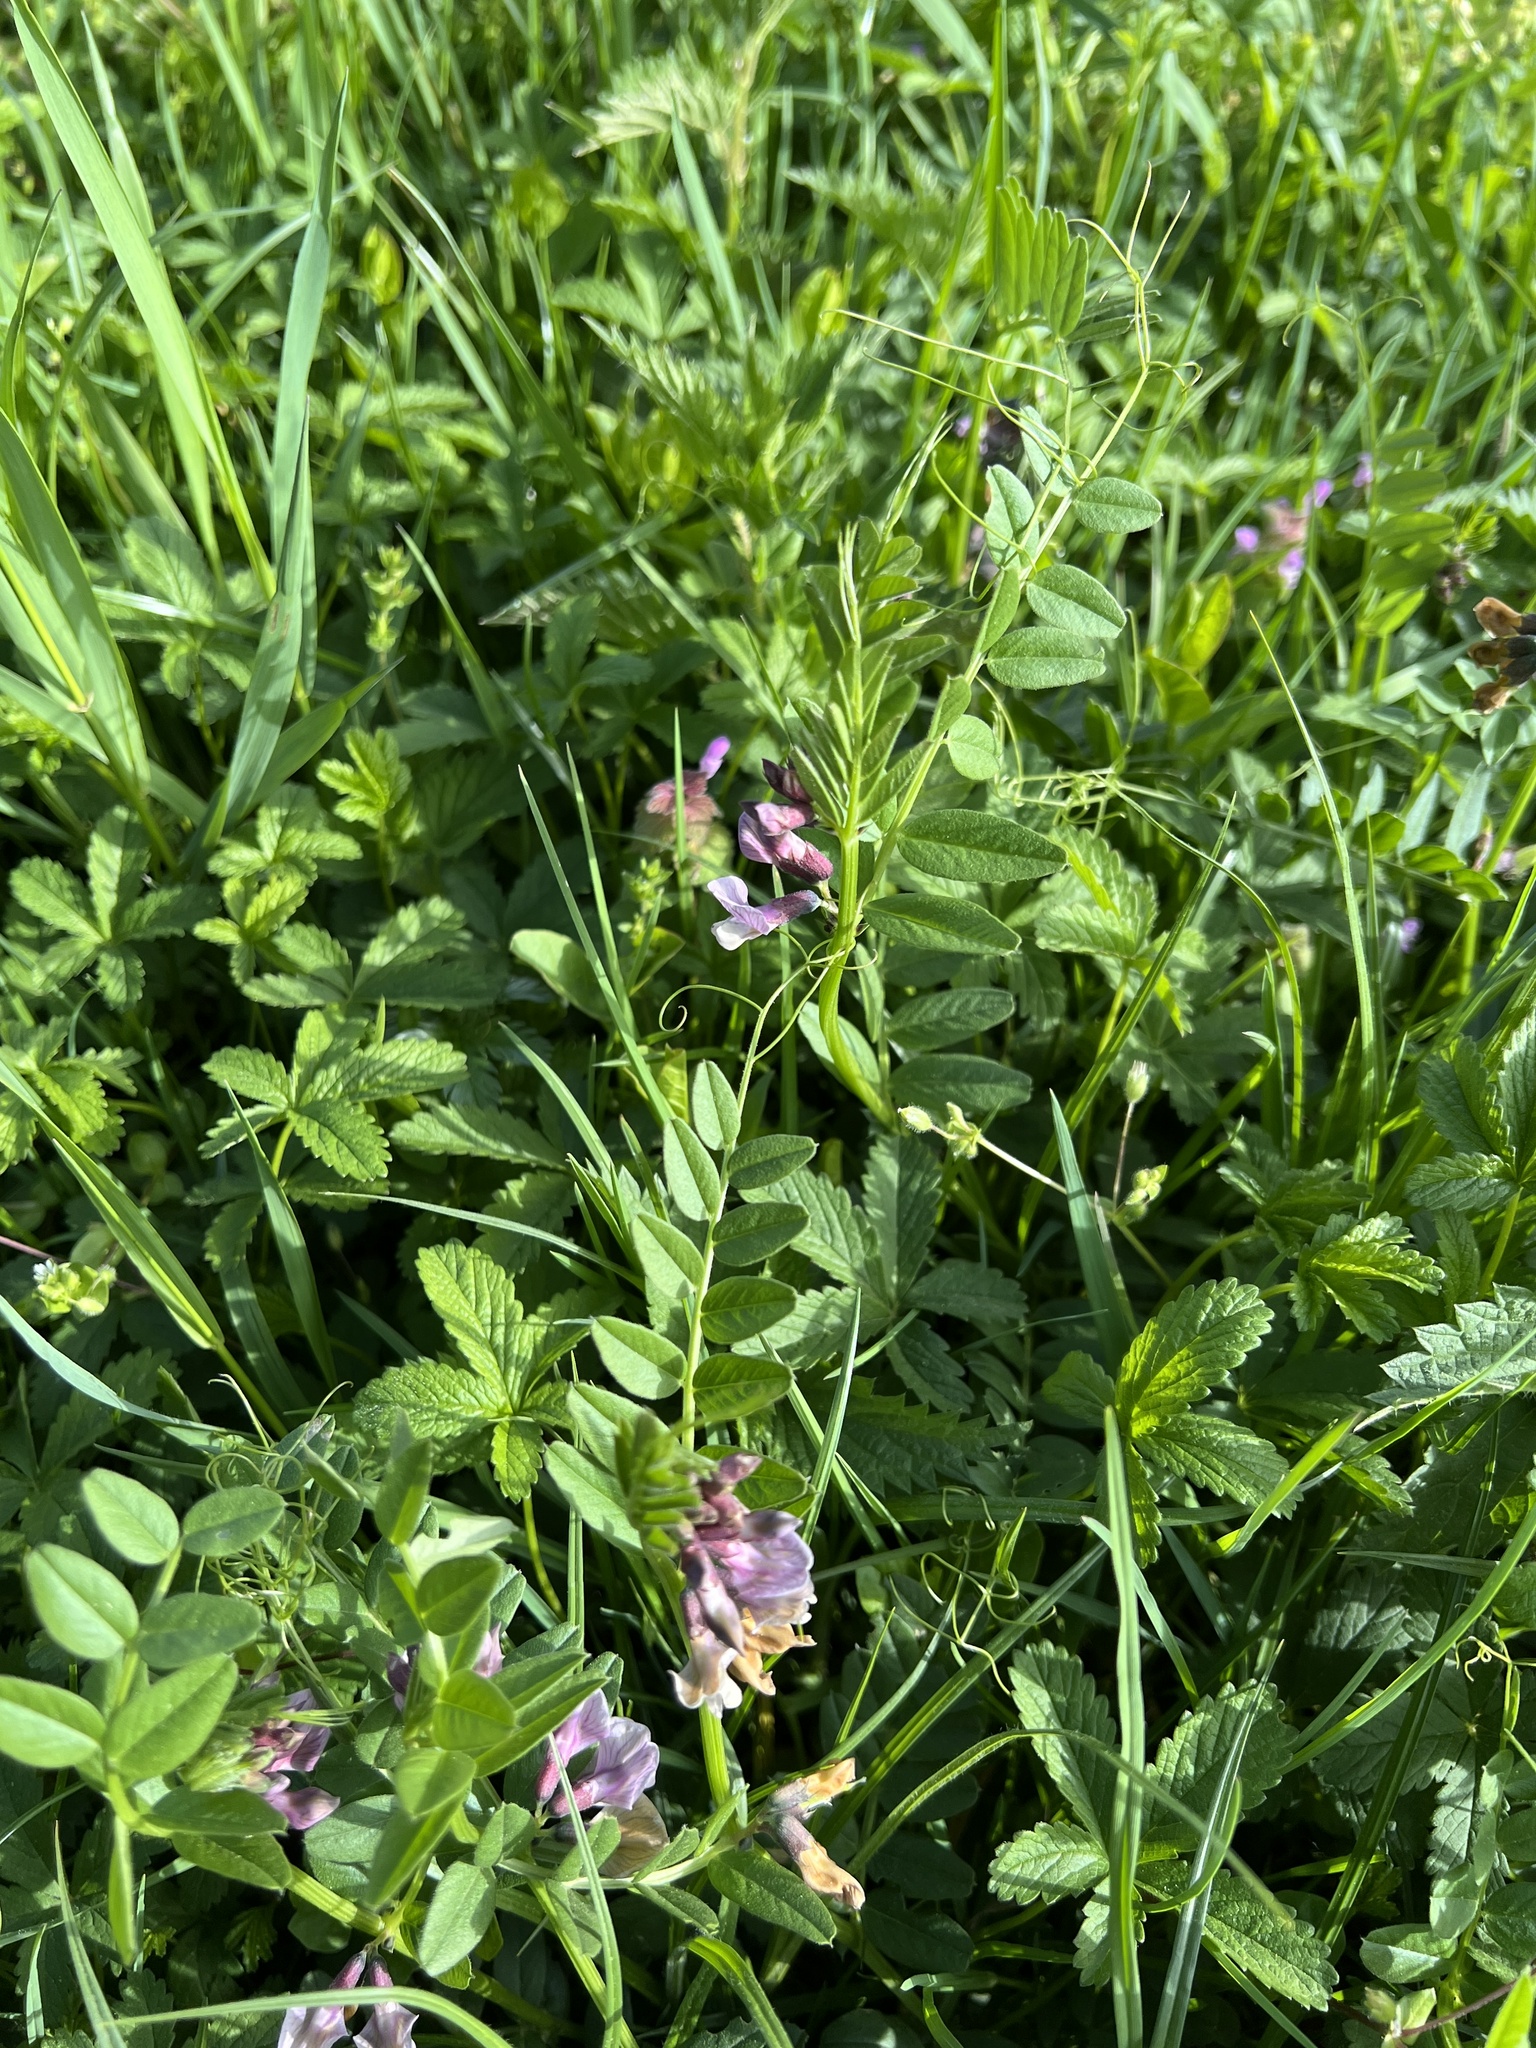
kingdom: Plantae
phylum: Tracheophyta
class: Magnoliopsida
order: Fabales
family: Fabaceae
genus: Vicia
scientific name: Vicia sepium
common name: Bush vetch
